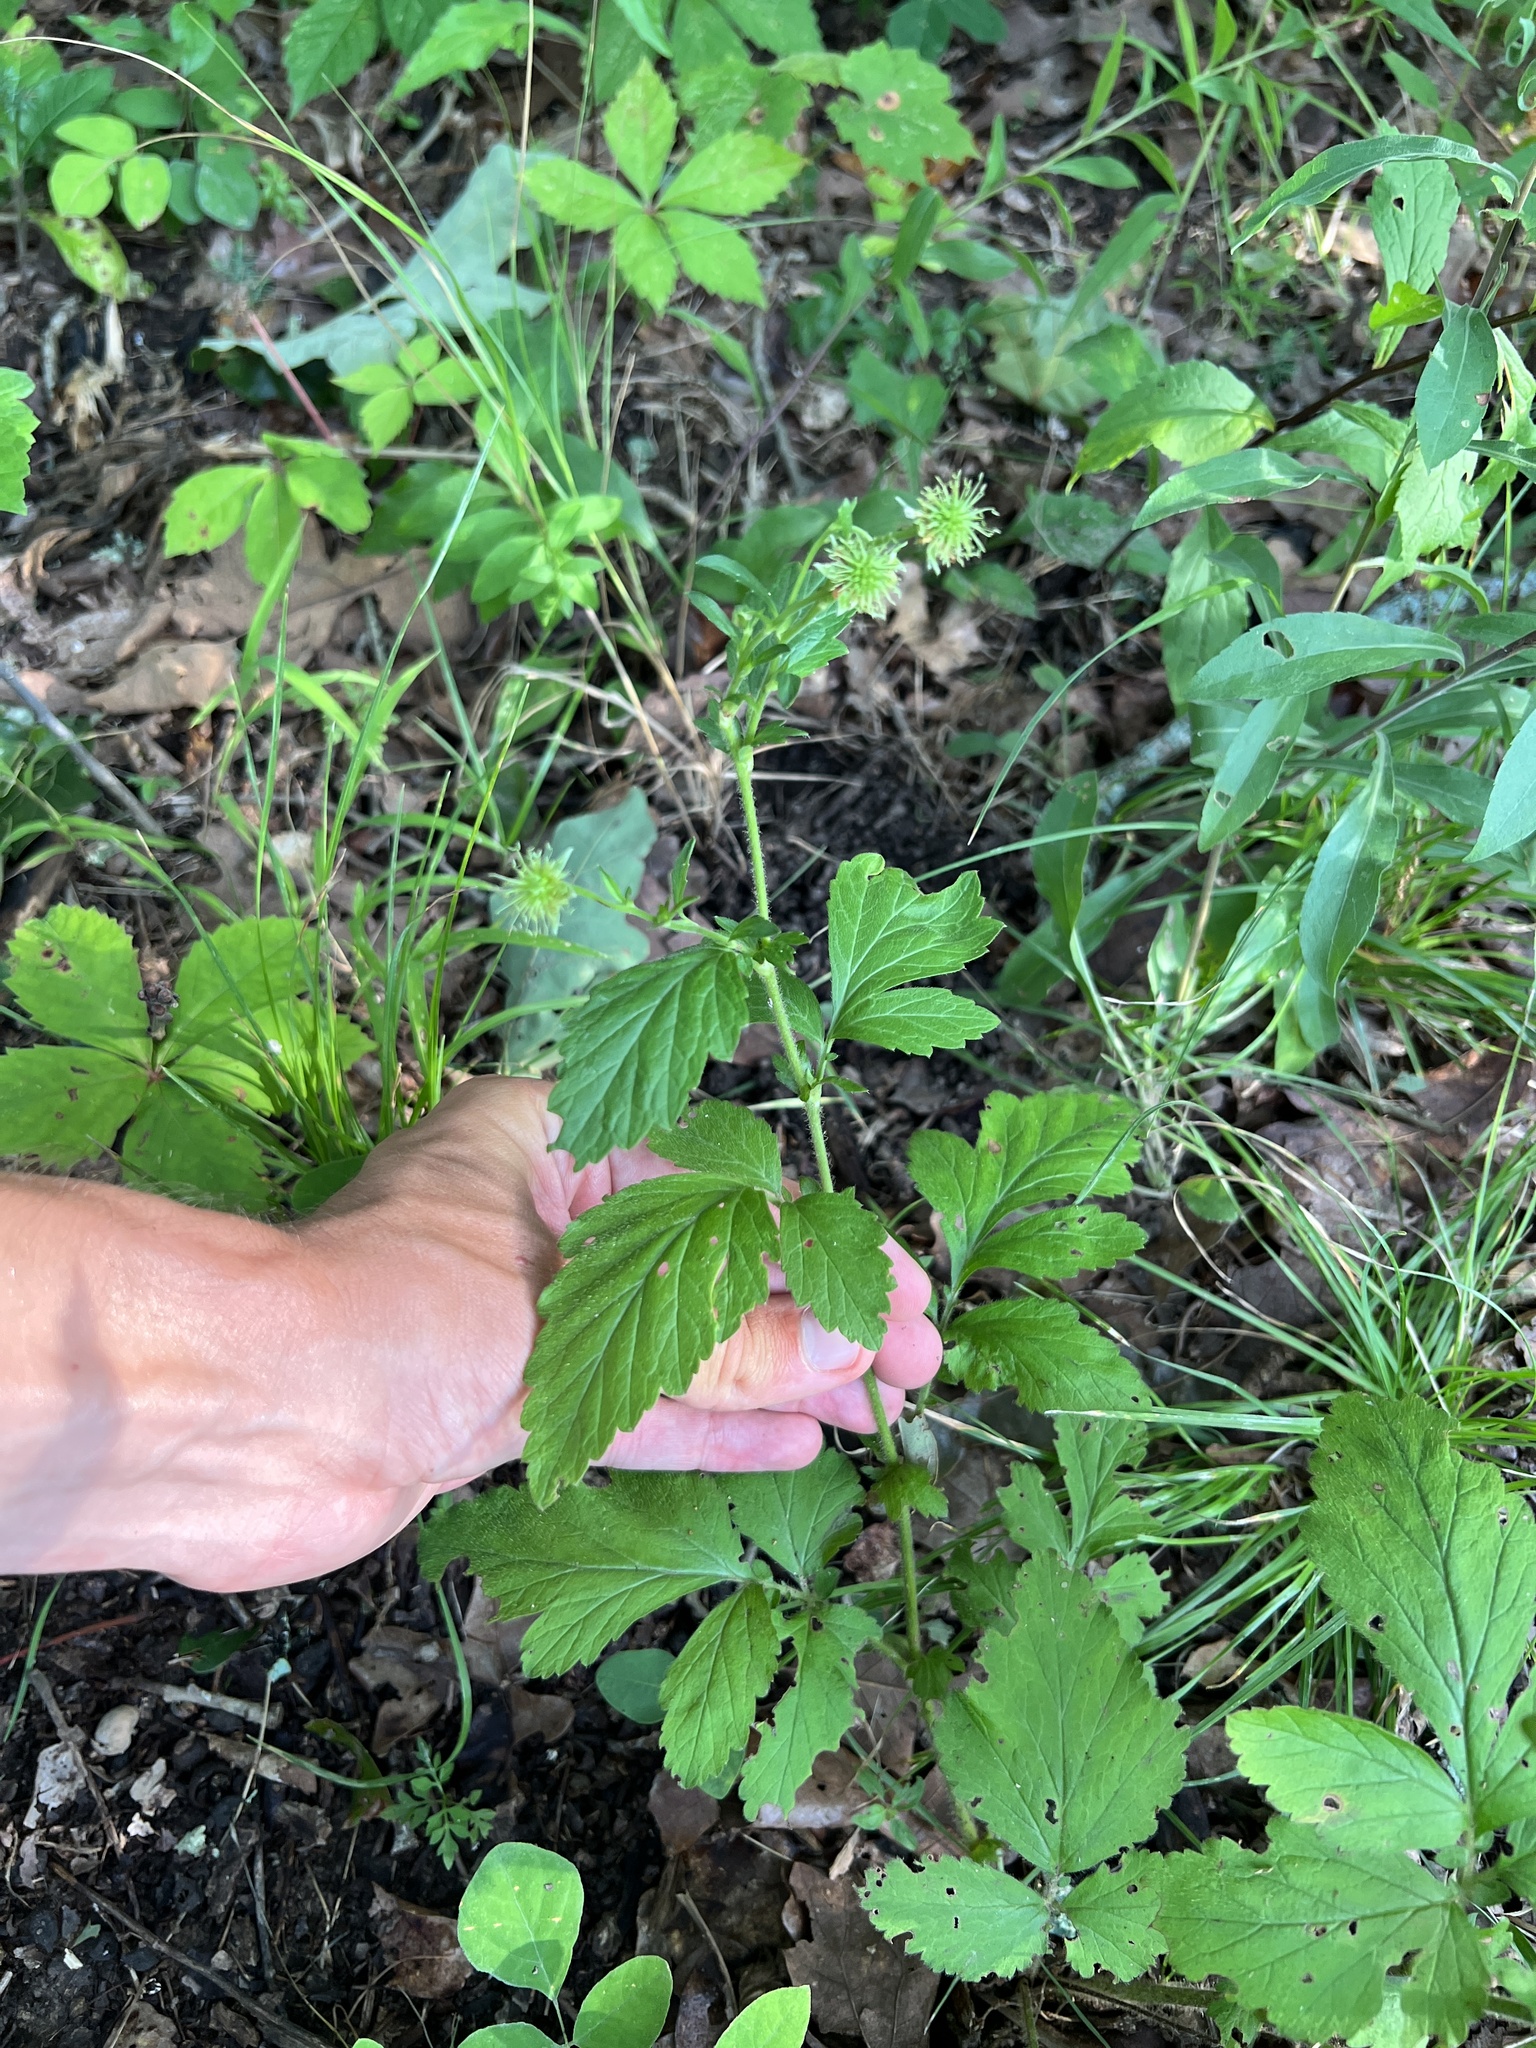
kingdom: Plantae
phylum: Tracheophyta
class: Magnoliopsida
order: Rosales
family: Rosaceae
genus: Geum
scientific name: Geum virginianum
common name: Cream avens
